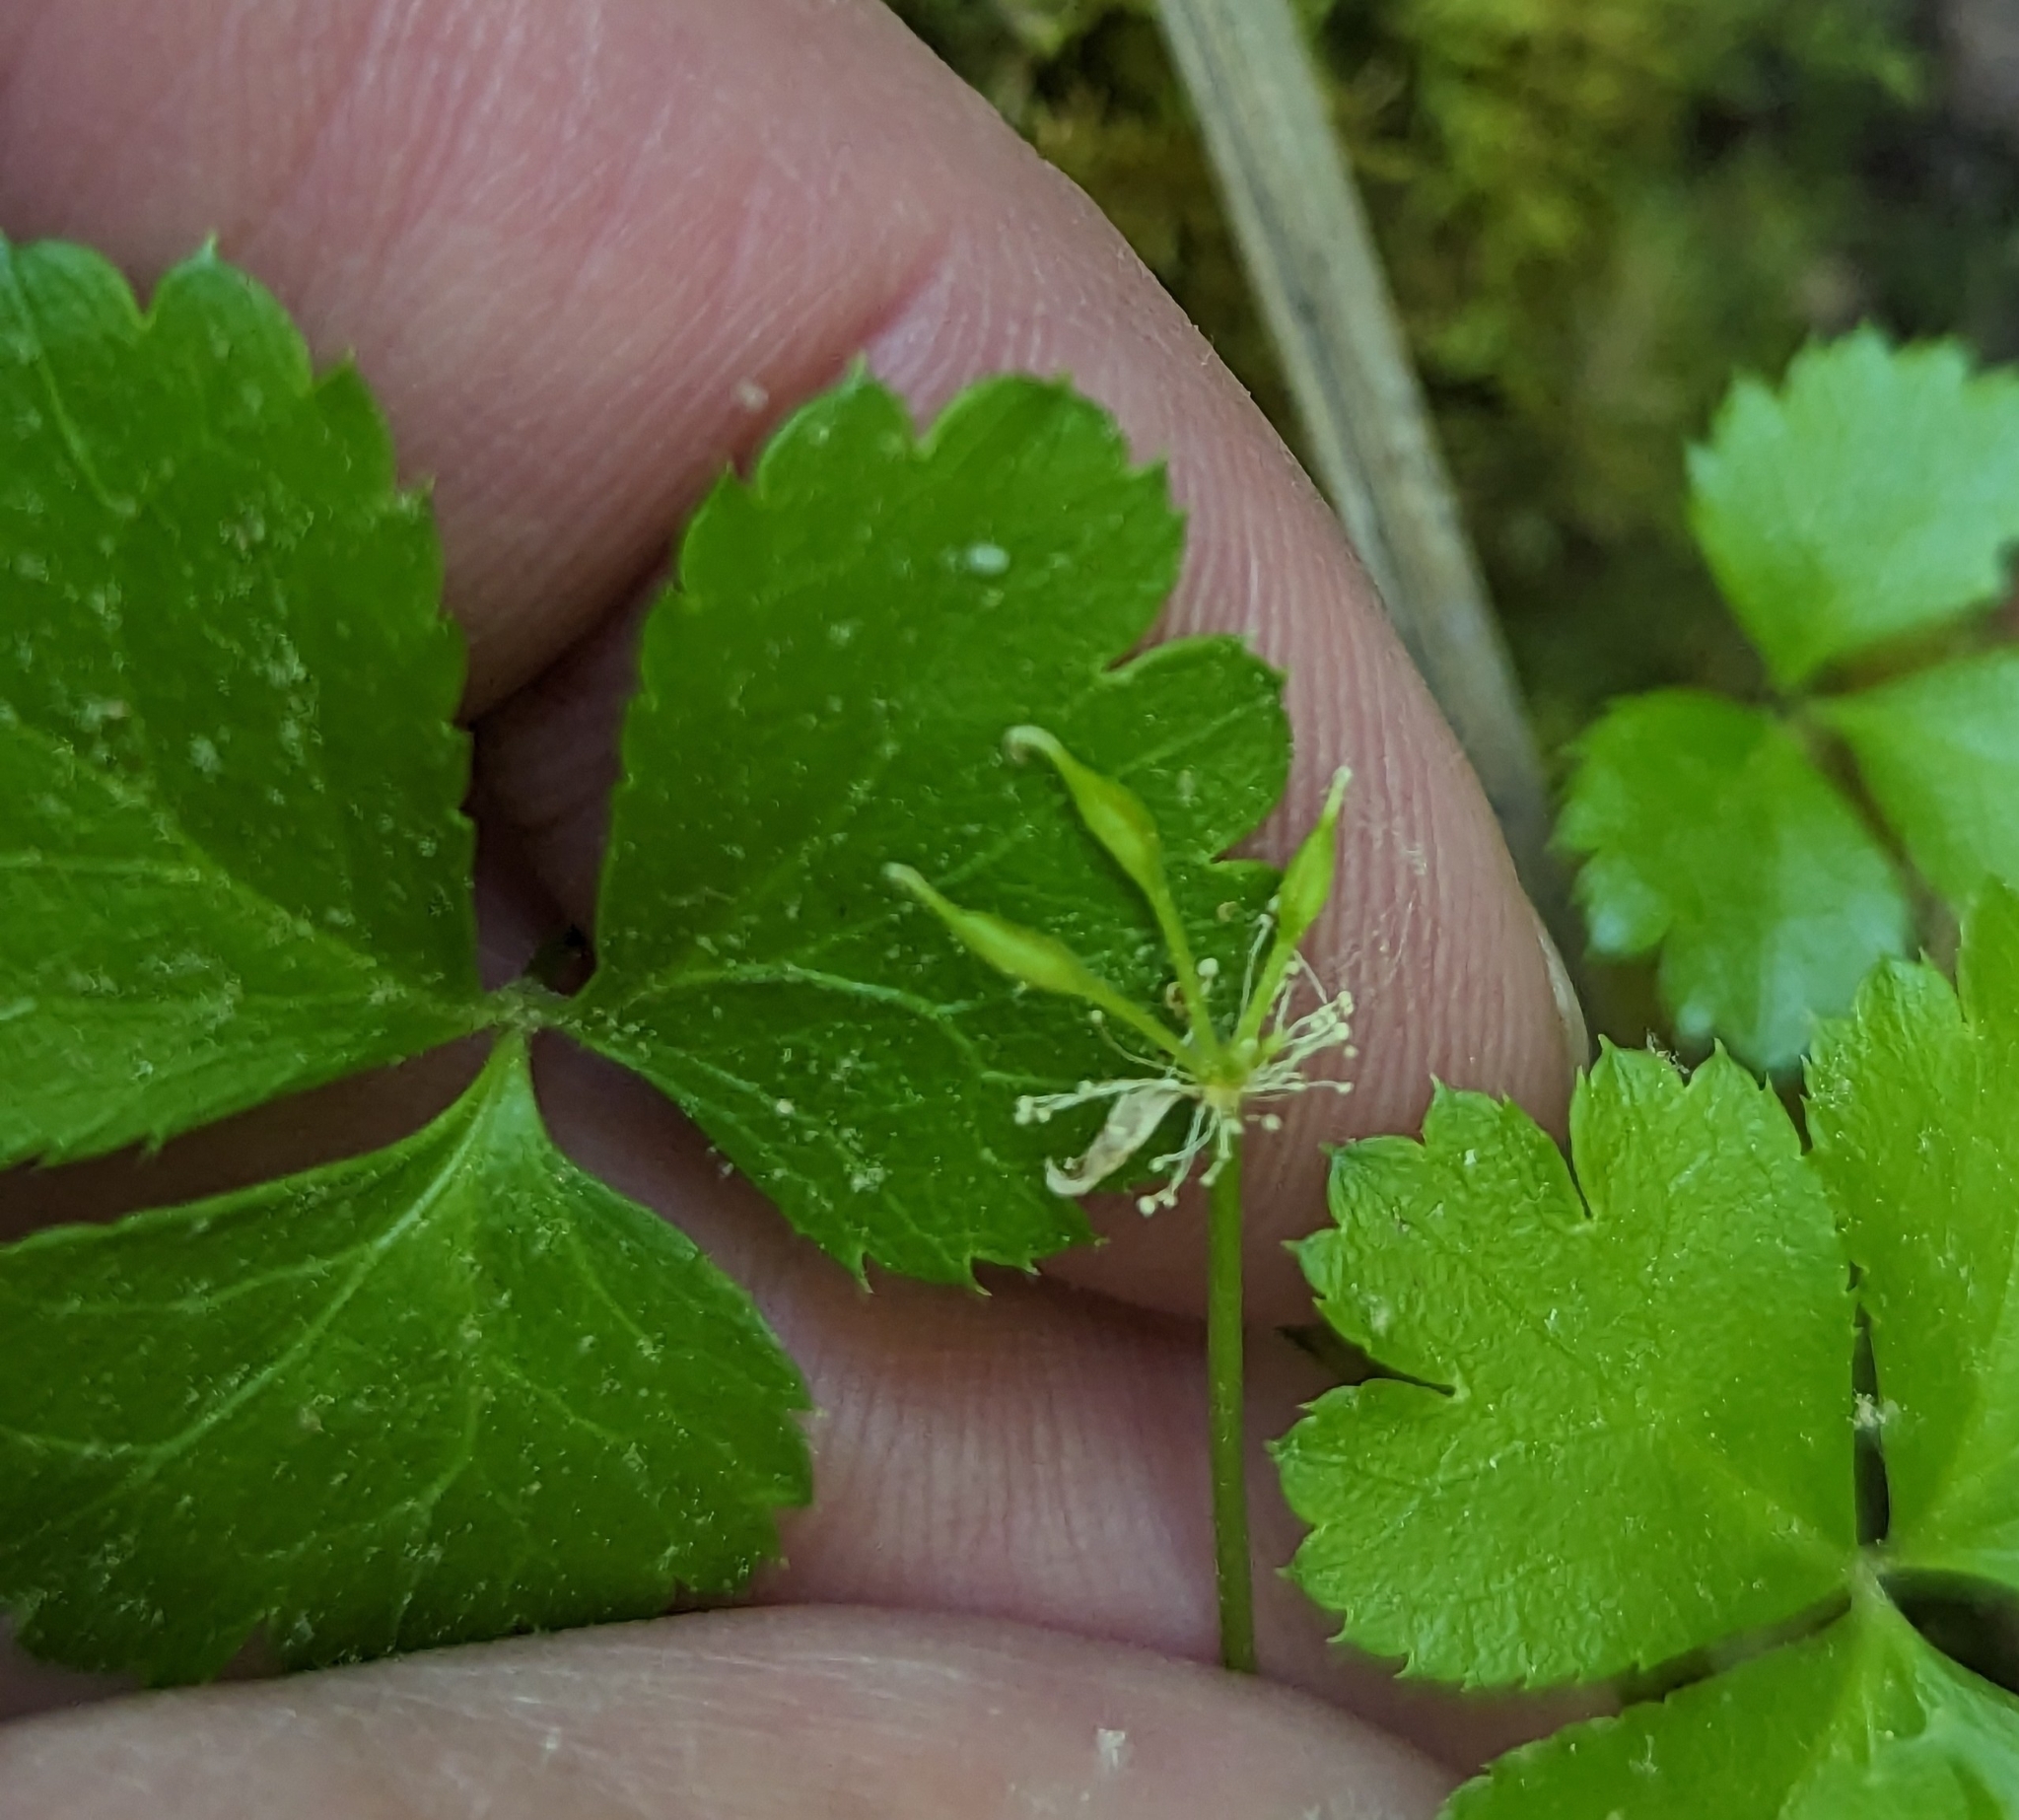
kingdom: Plantae
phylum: Tracheophyta
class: Magnoliopsida
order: Ranunculales
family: Ranunculaceae
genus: Coptis
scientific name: Coptis trifolia
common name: Canker-root
